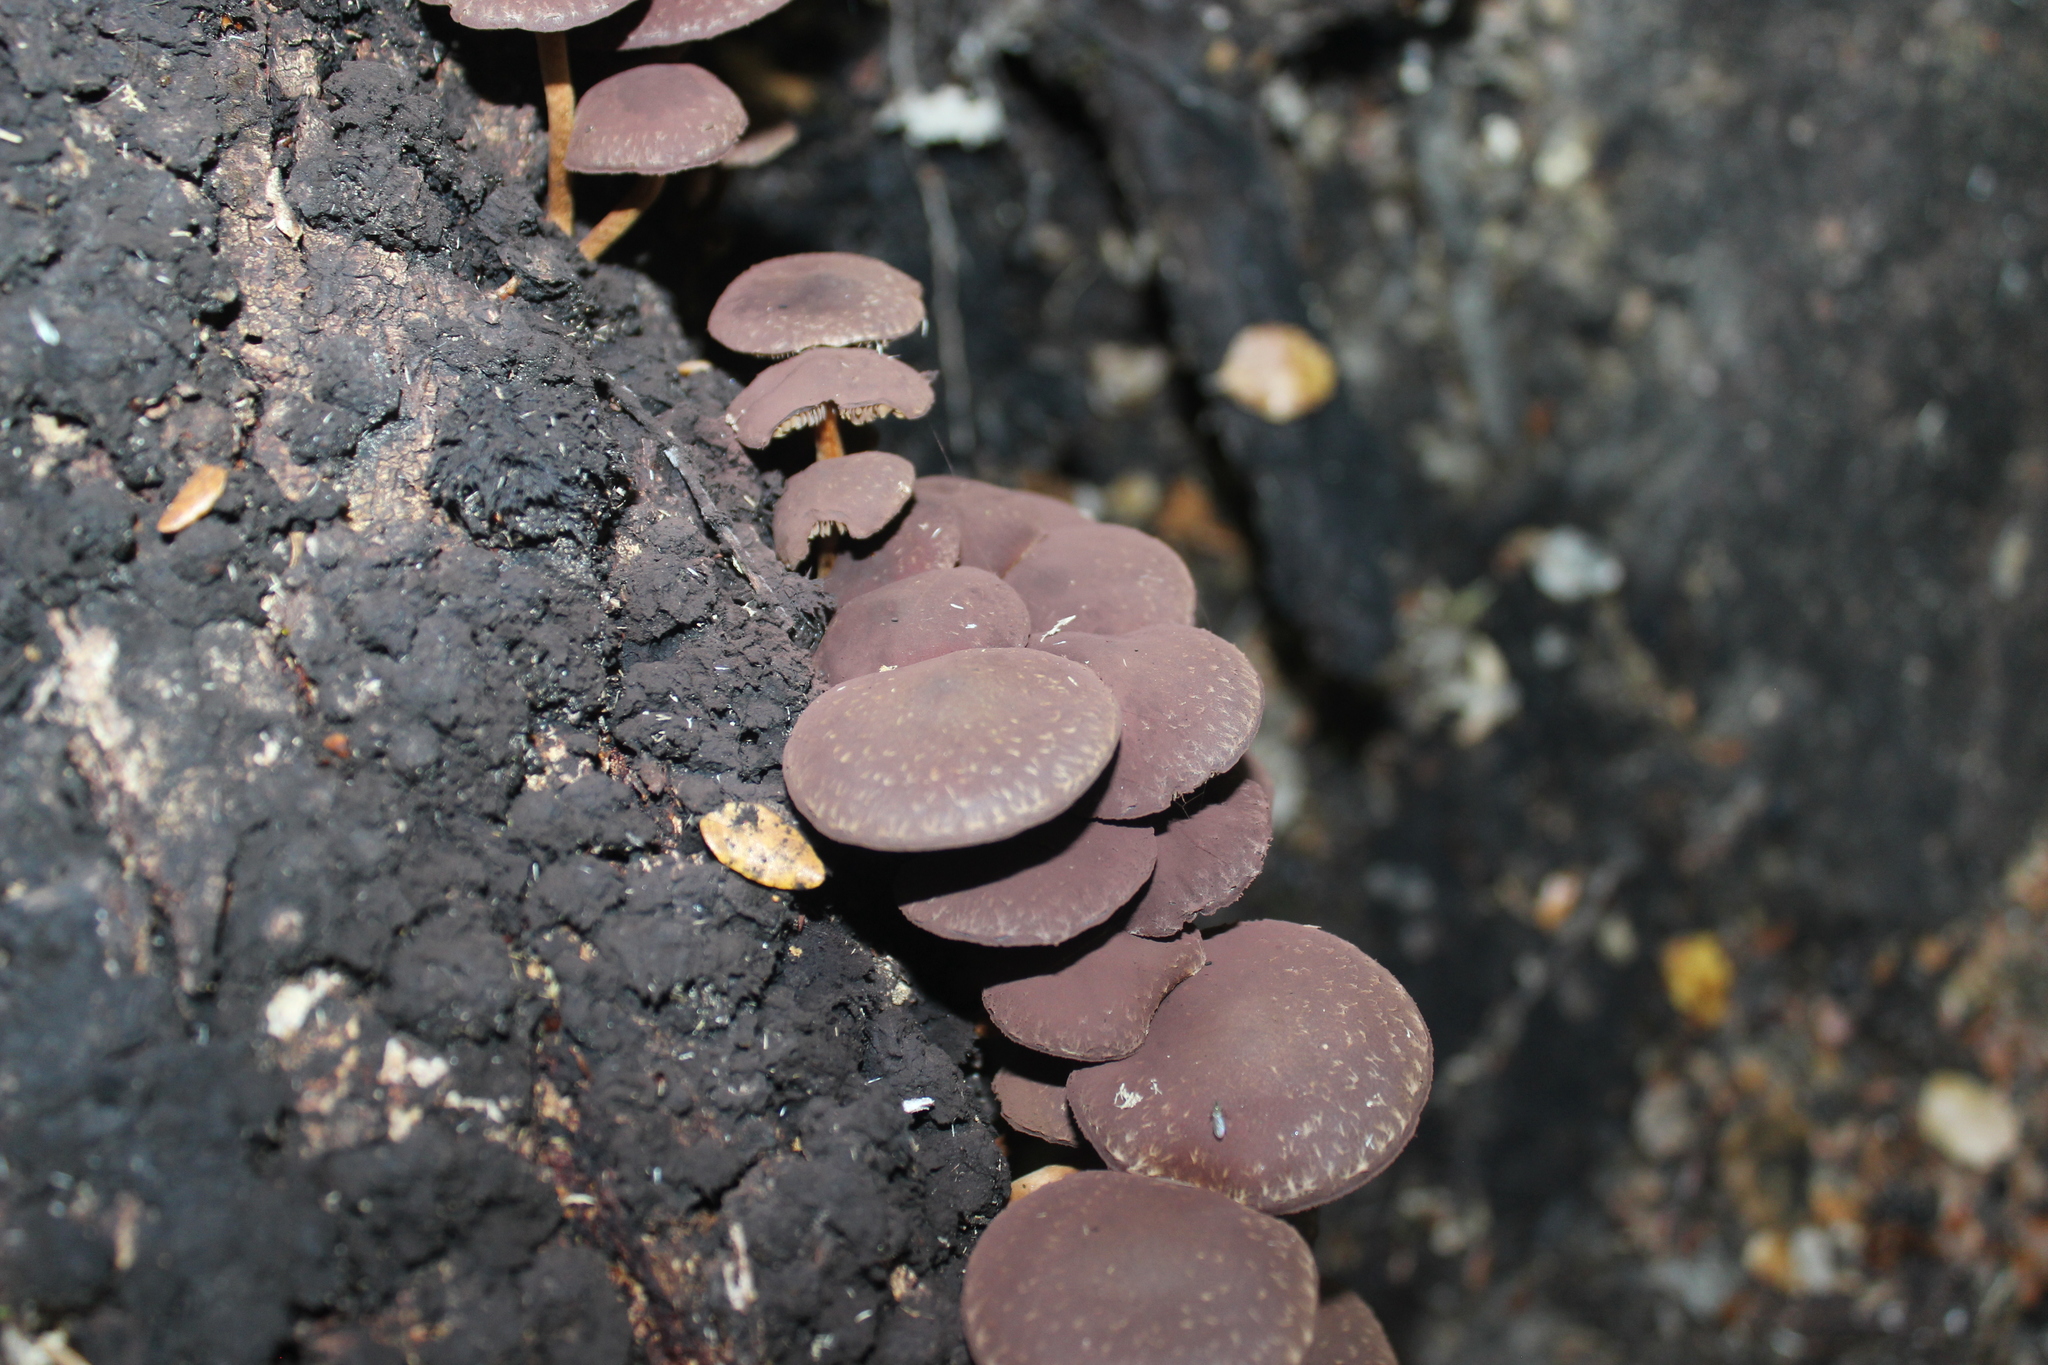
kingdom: Fungi
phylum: Basidiomycota
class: Agaricomycetes
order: Agaricales
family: Strophariaceae
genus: Hypholoma
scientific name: Hypholoma brunneum
